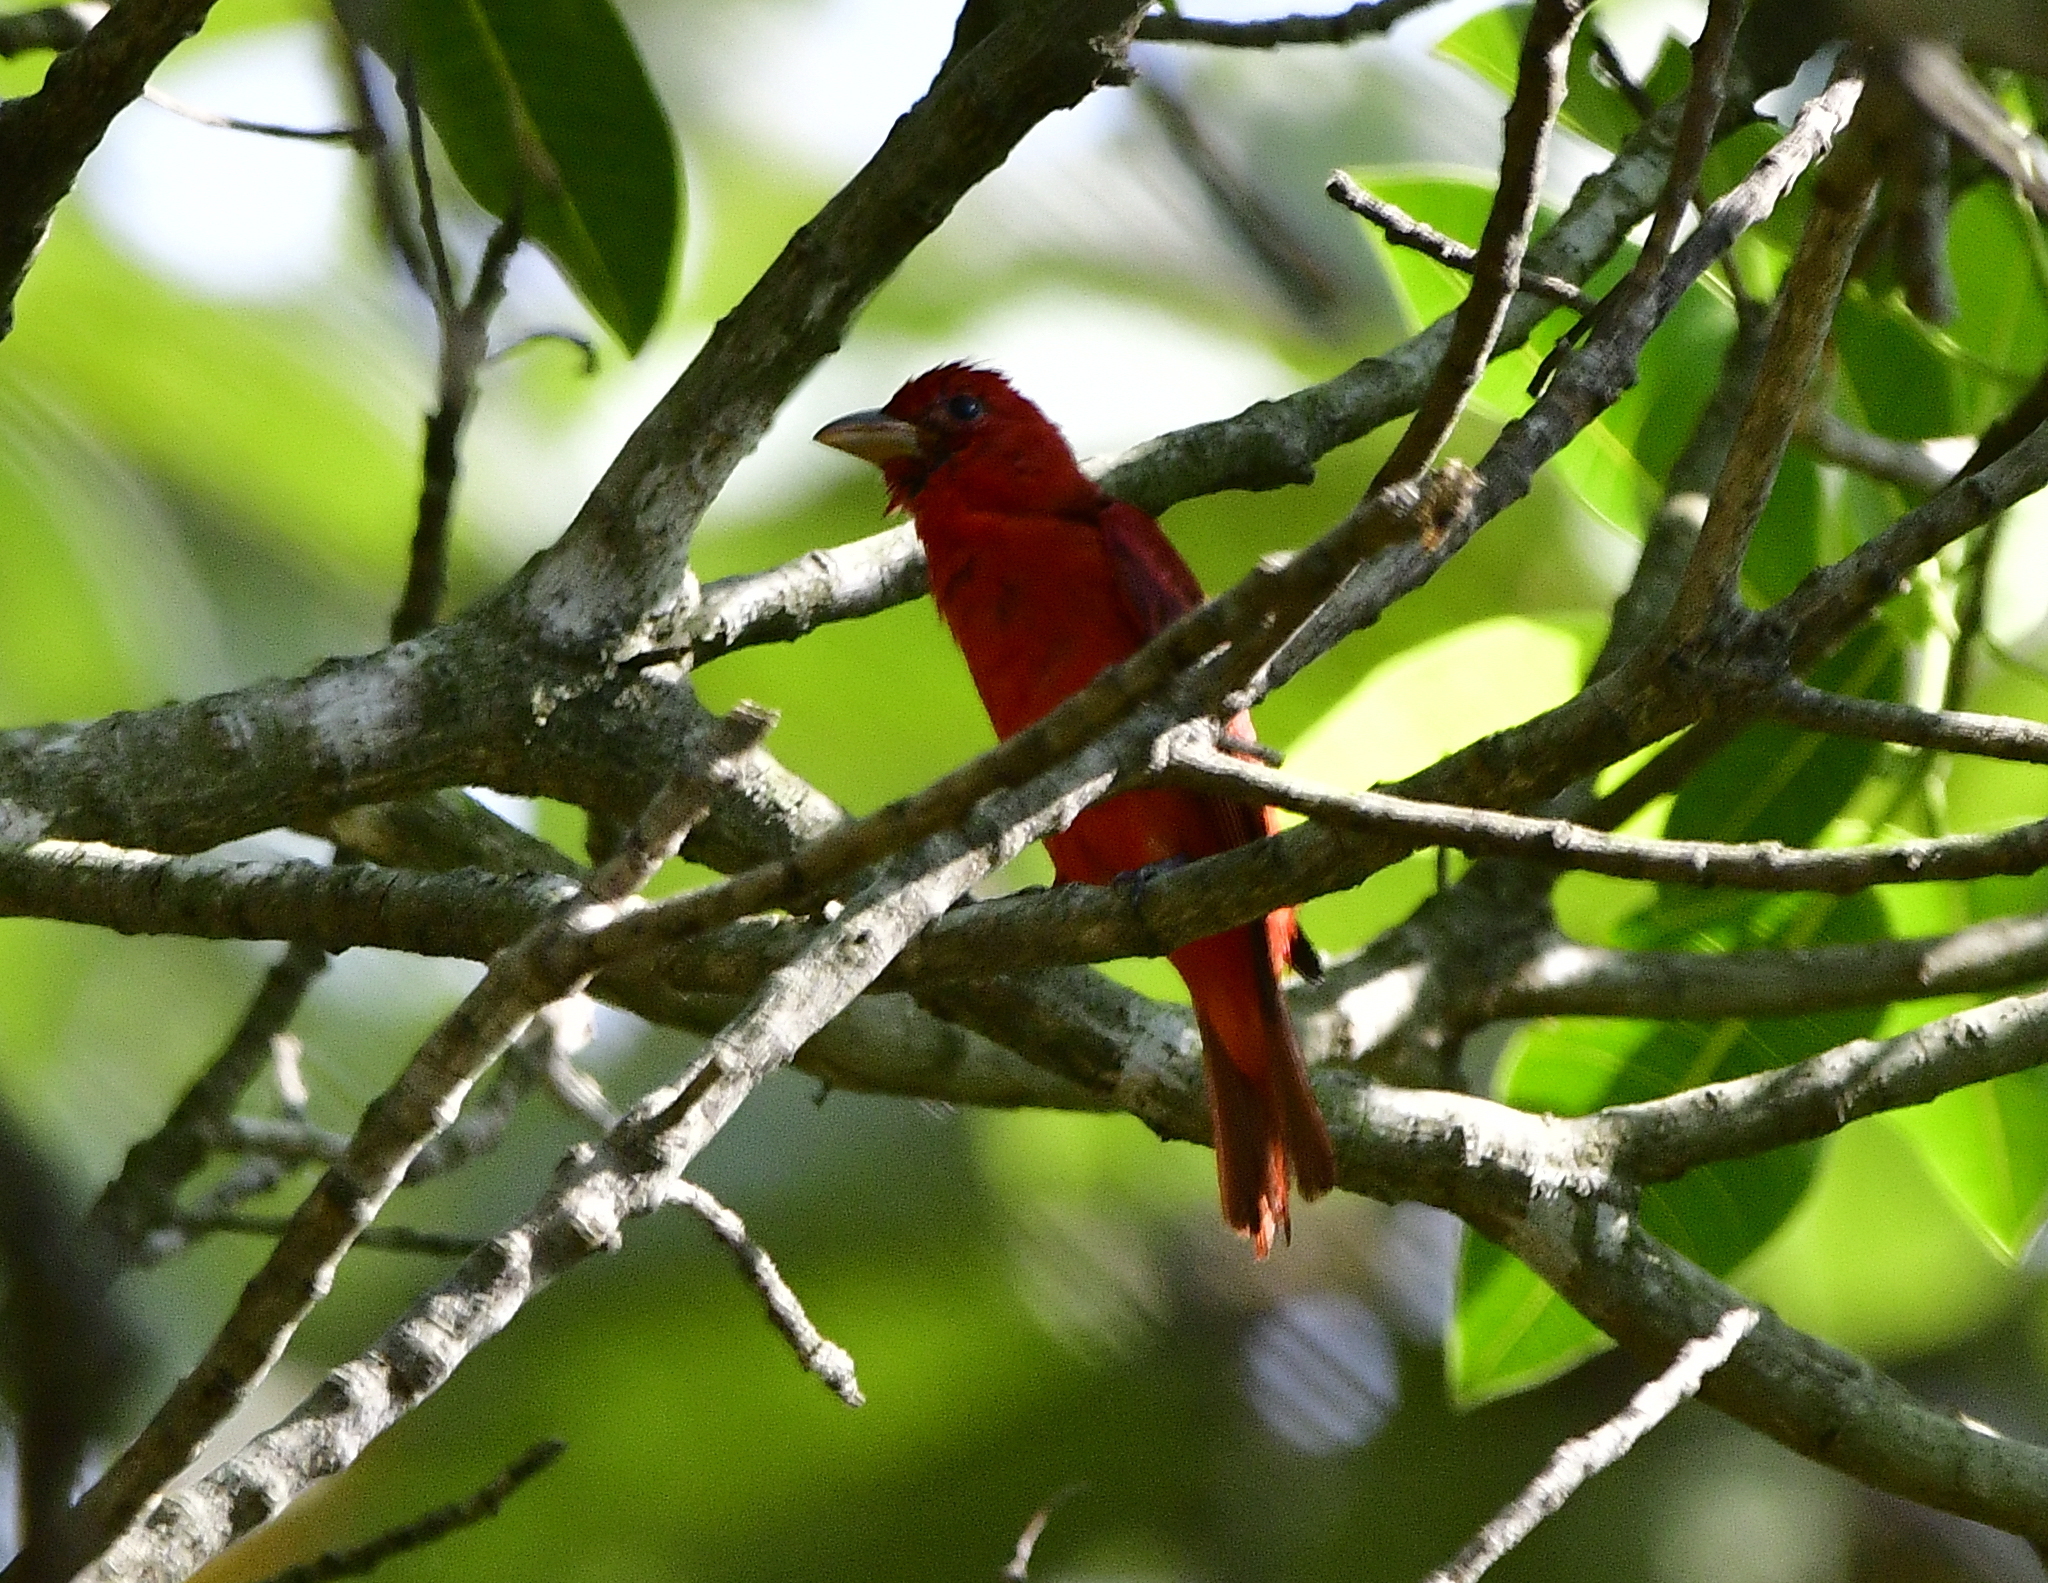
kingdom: Animalia
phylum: Chordata
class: Aves
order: Passeriformes
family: Cardinalidae
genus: Piranga
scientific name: Piranga rubra
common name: Summer tanager
